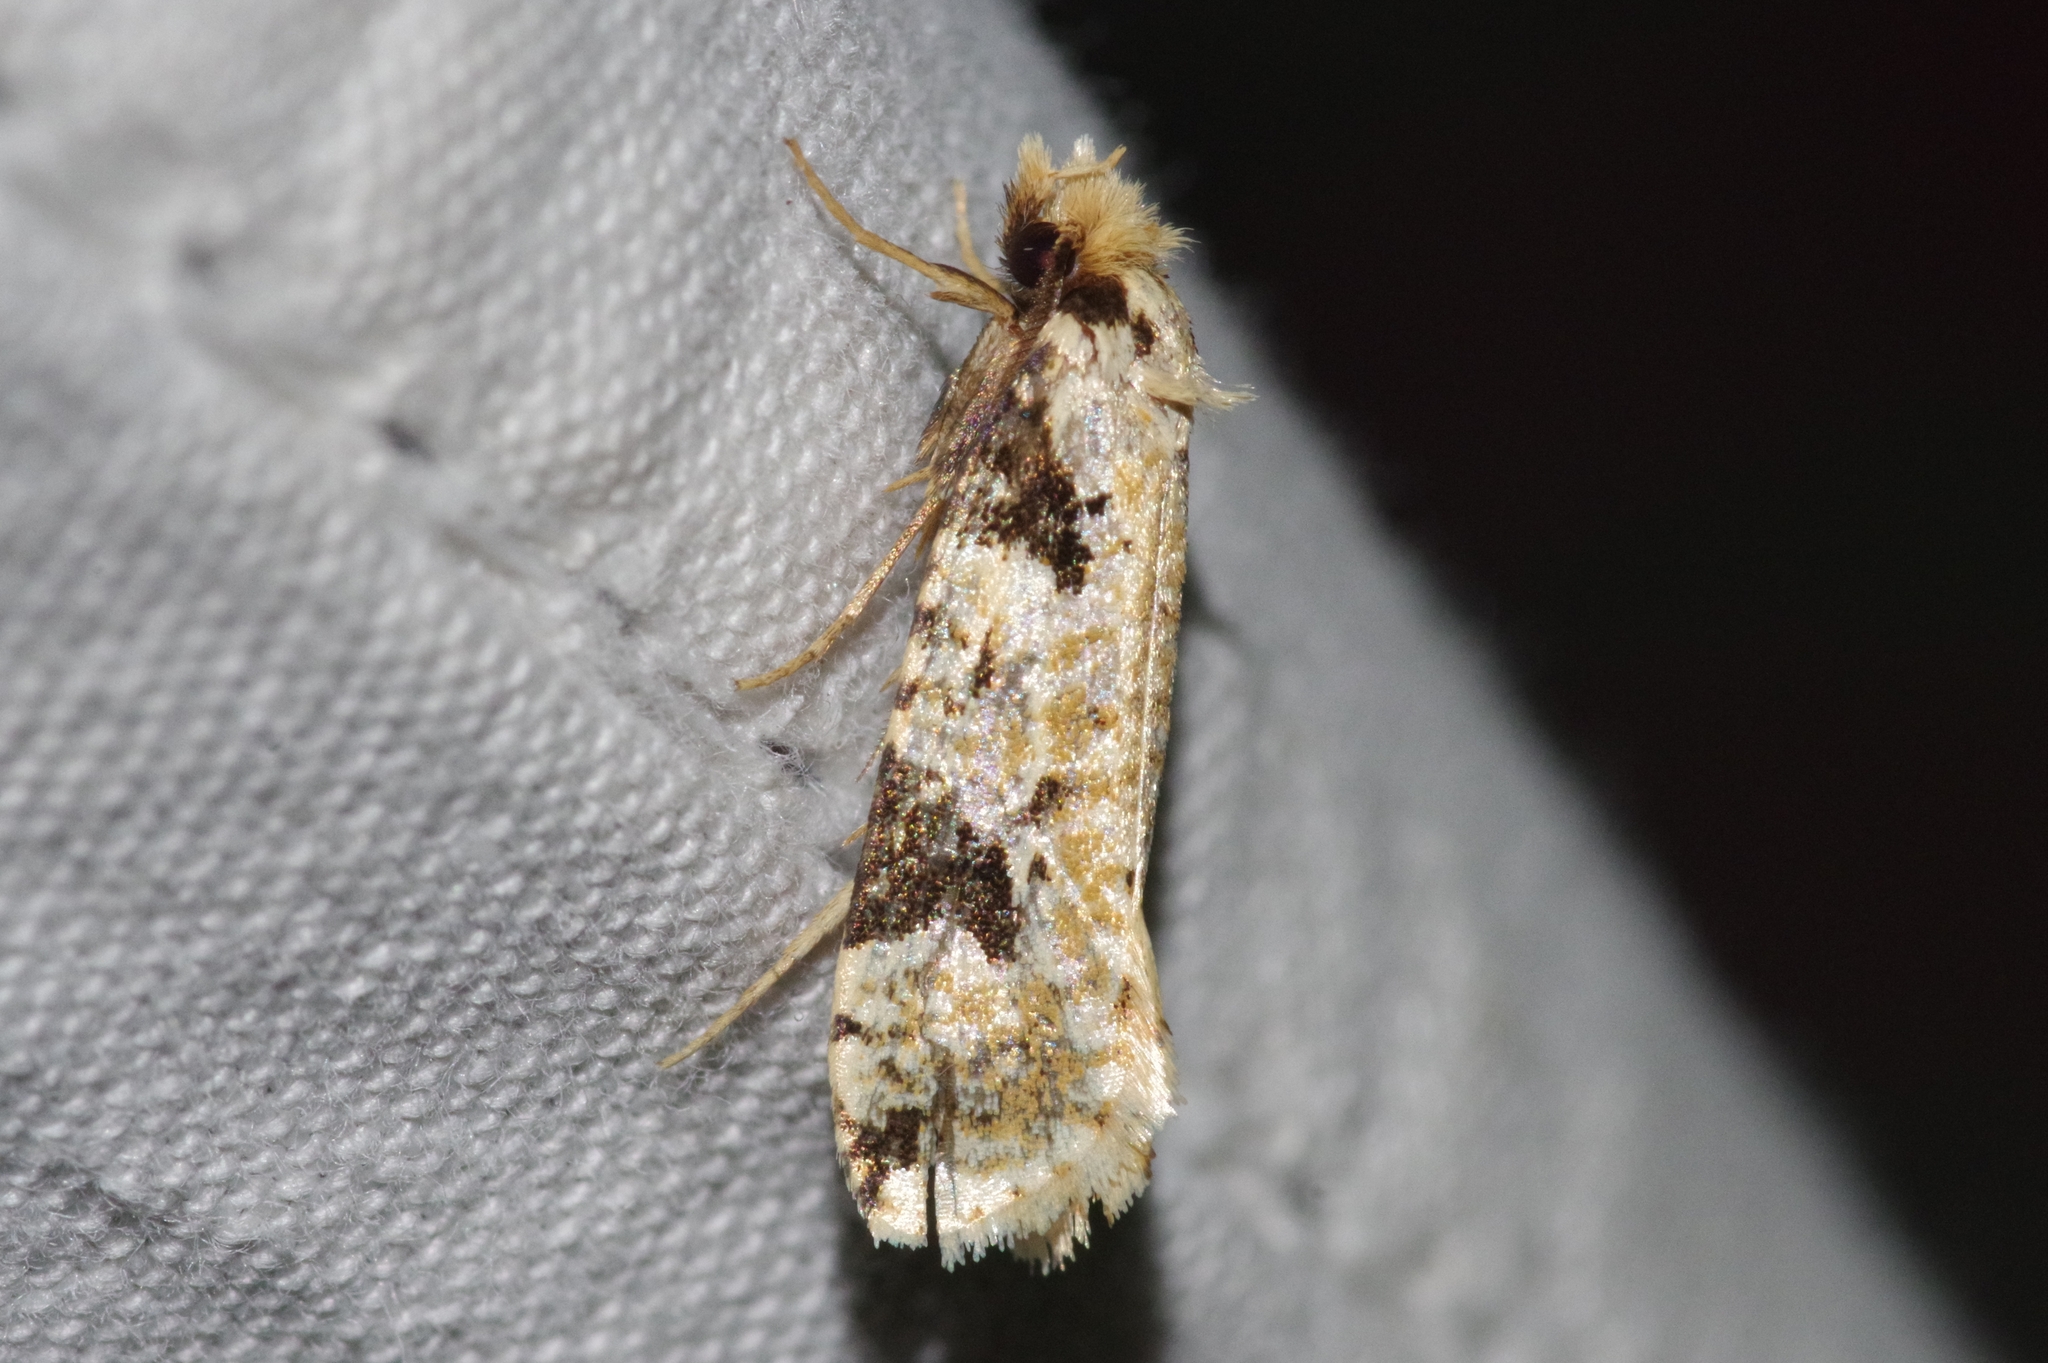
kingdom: Animalia
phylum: Arthropoda
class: Insecta
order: Lepidoptera
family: Tineidae
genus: Pelecystola
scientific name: Pelecystola strigosa
